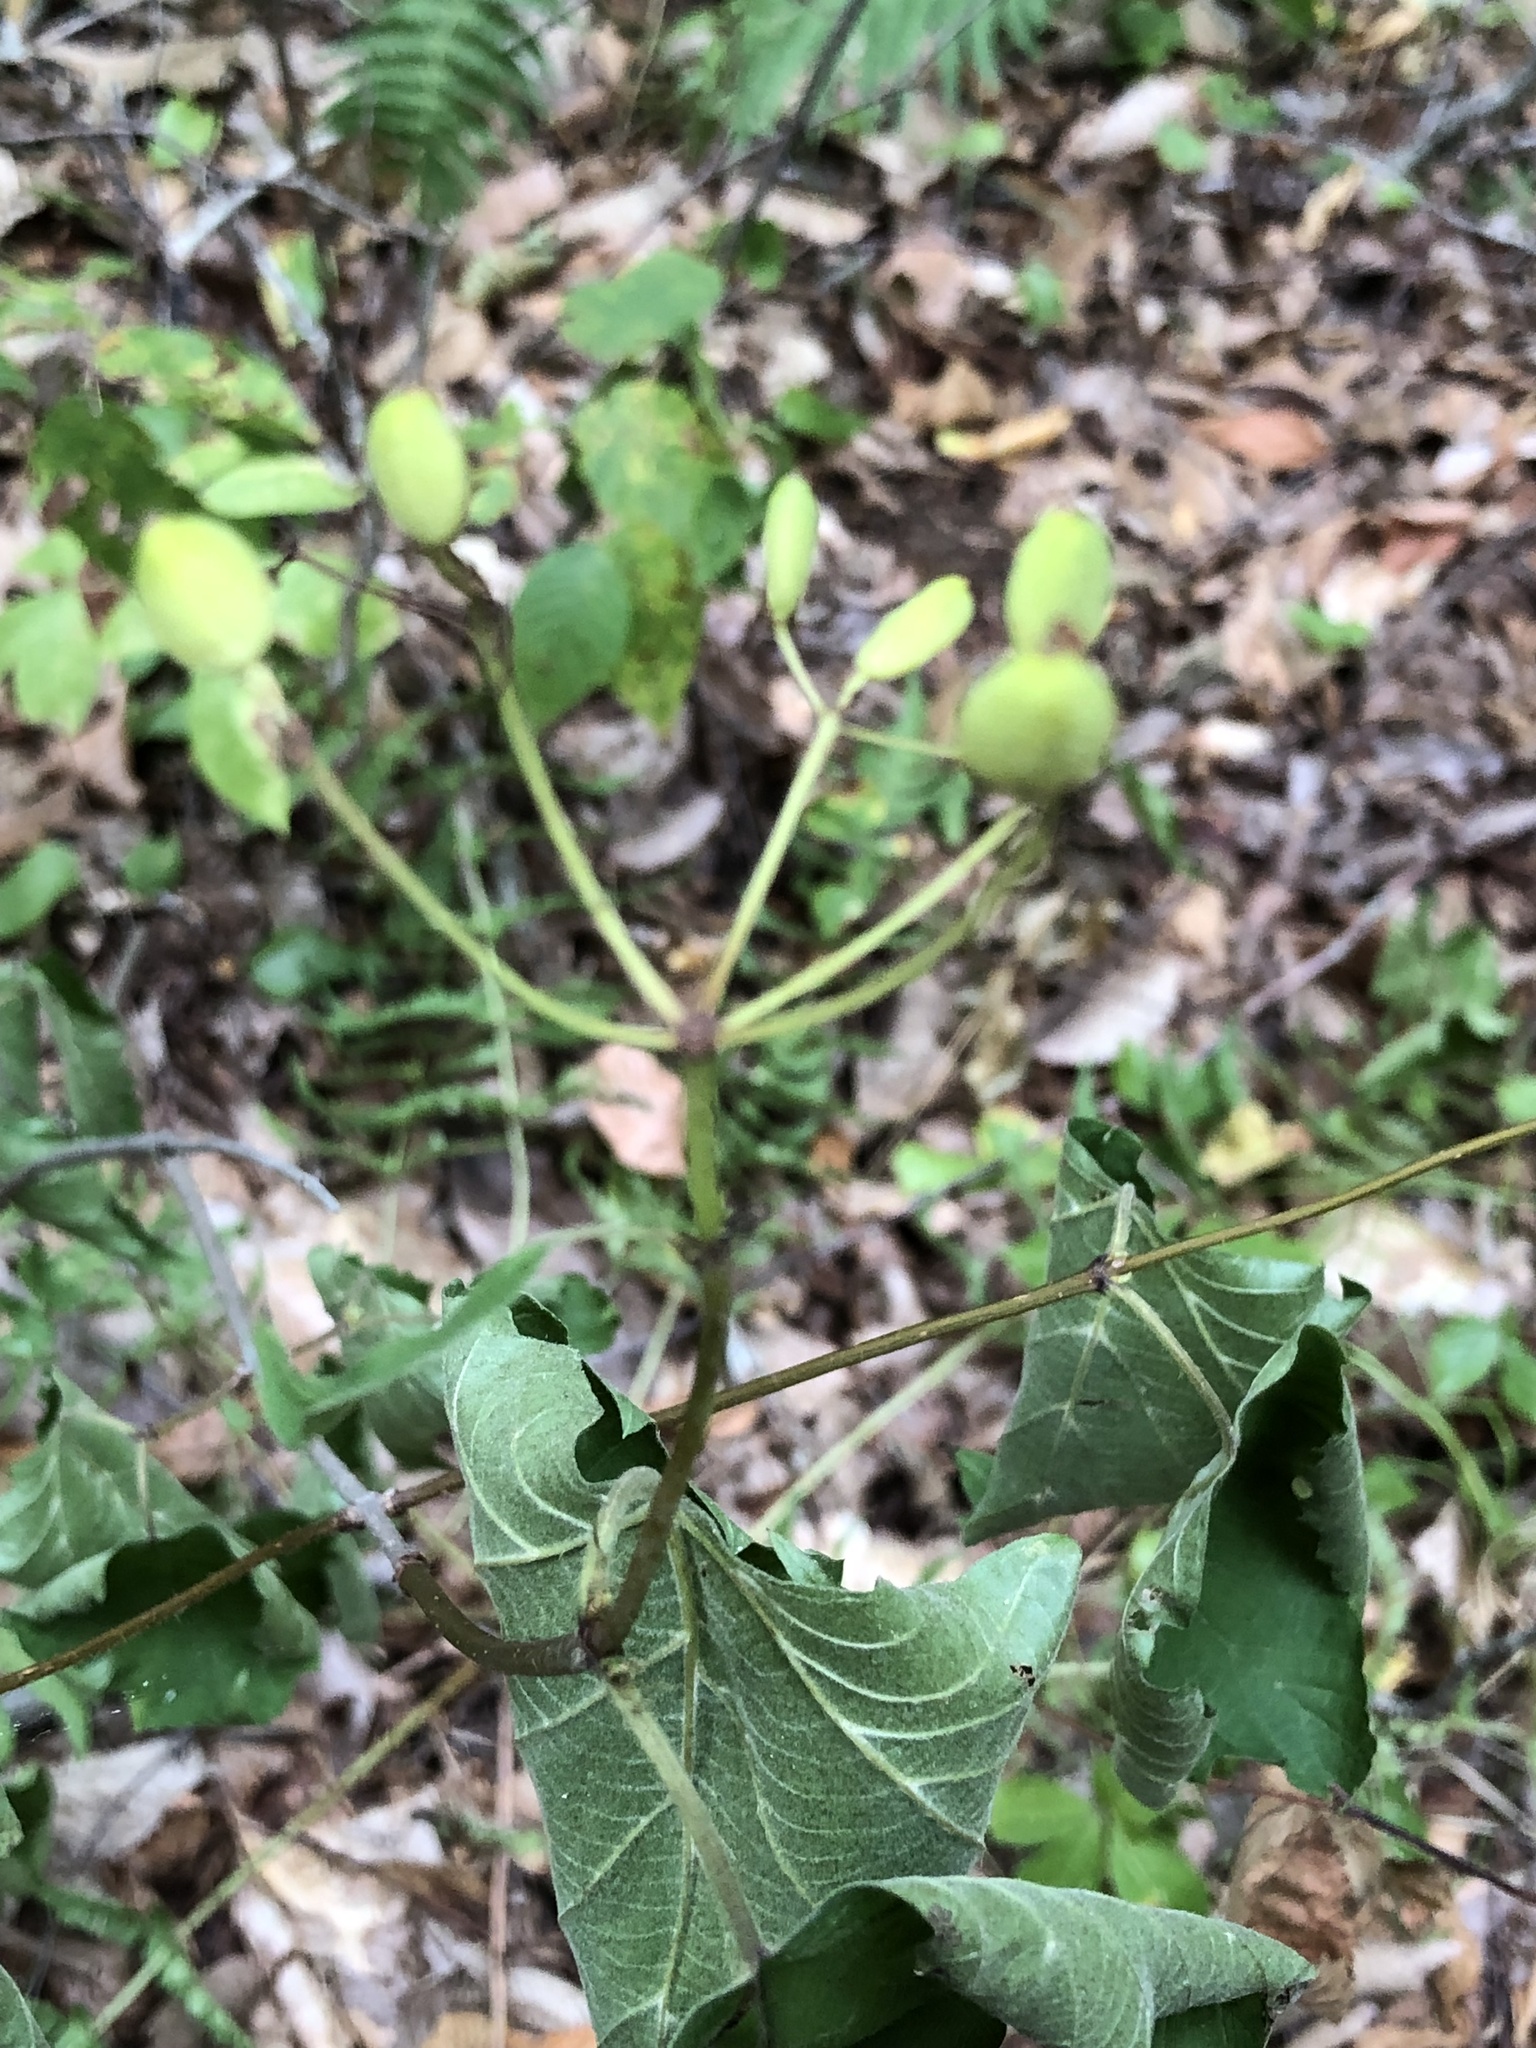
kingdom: Plantae
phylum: Tracheophyta
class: Magnoliopsida
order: Dipsacales
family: Viburnaceae
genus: Viburnum
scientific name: Viburnum acerifolium
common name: Dockmackie
